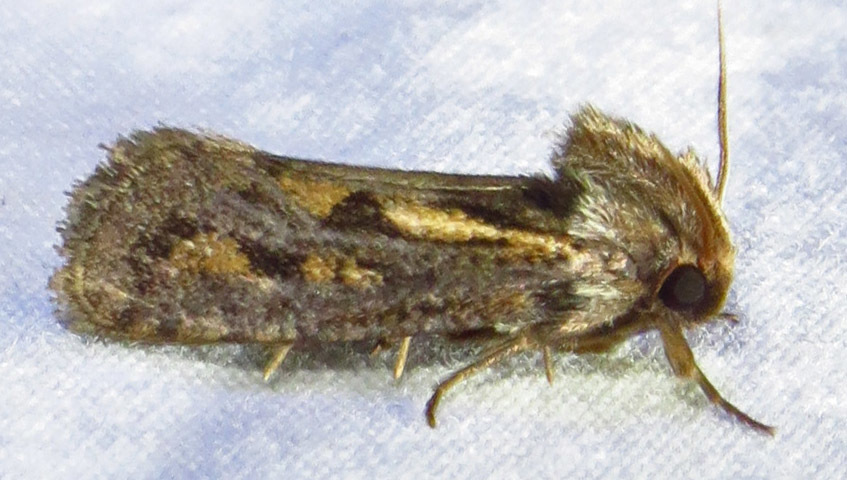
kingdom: Animalia
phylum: Arthropoda
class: Insecta
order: Lepidoptera
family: Tineidae
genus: Acrolophus
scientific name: Acrolophus popeanella
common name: Clemens' grass tubeworm moth
